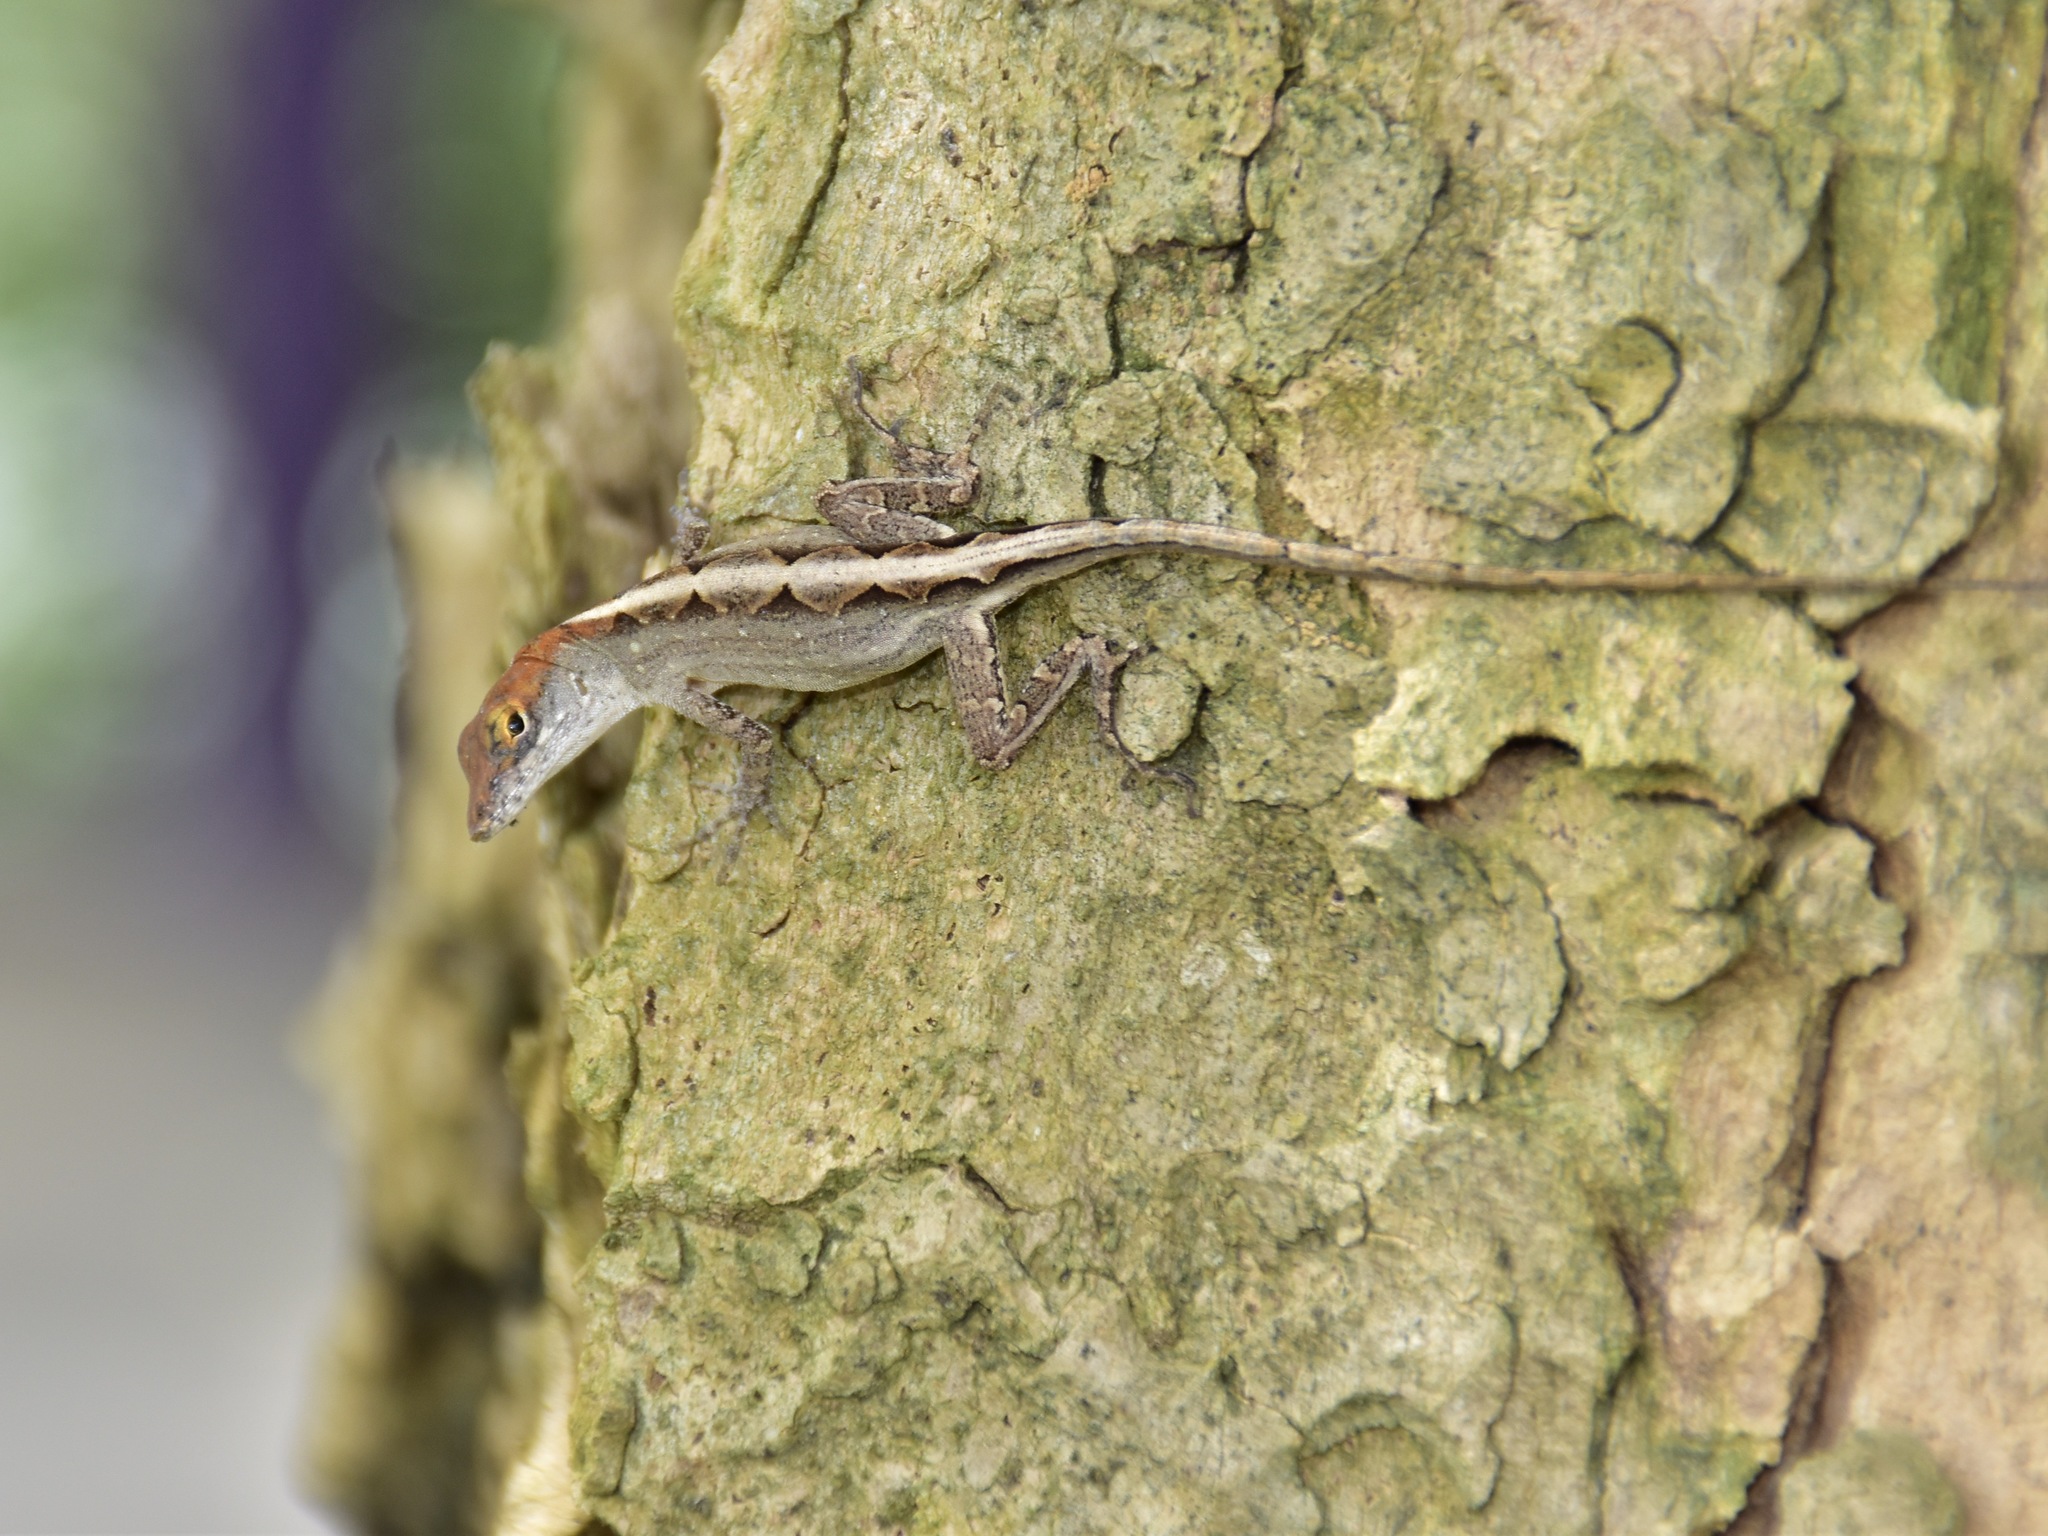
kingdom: Animalia
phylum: Chordata
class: Squamata
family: Dactyloidae
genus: Anolis
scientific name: Anolis sagrei
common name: Brown anole
